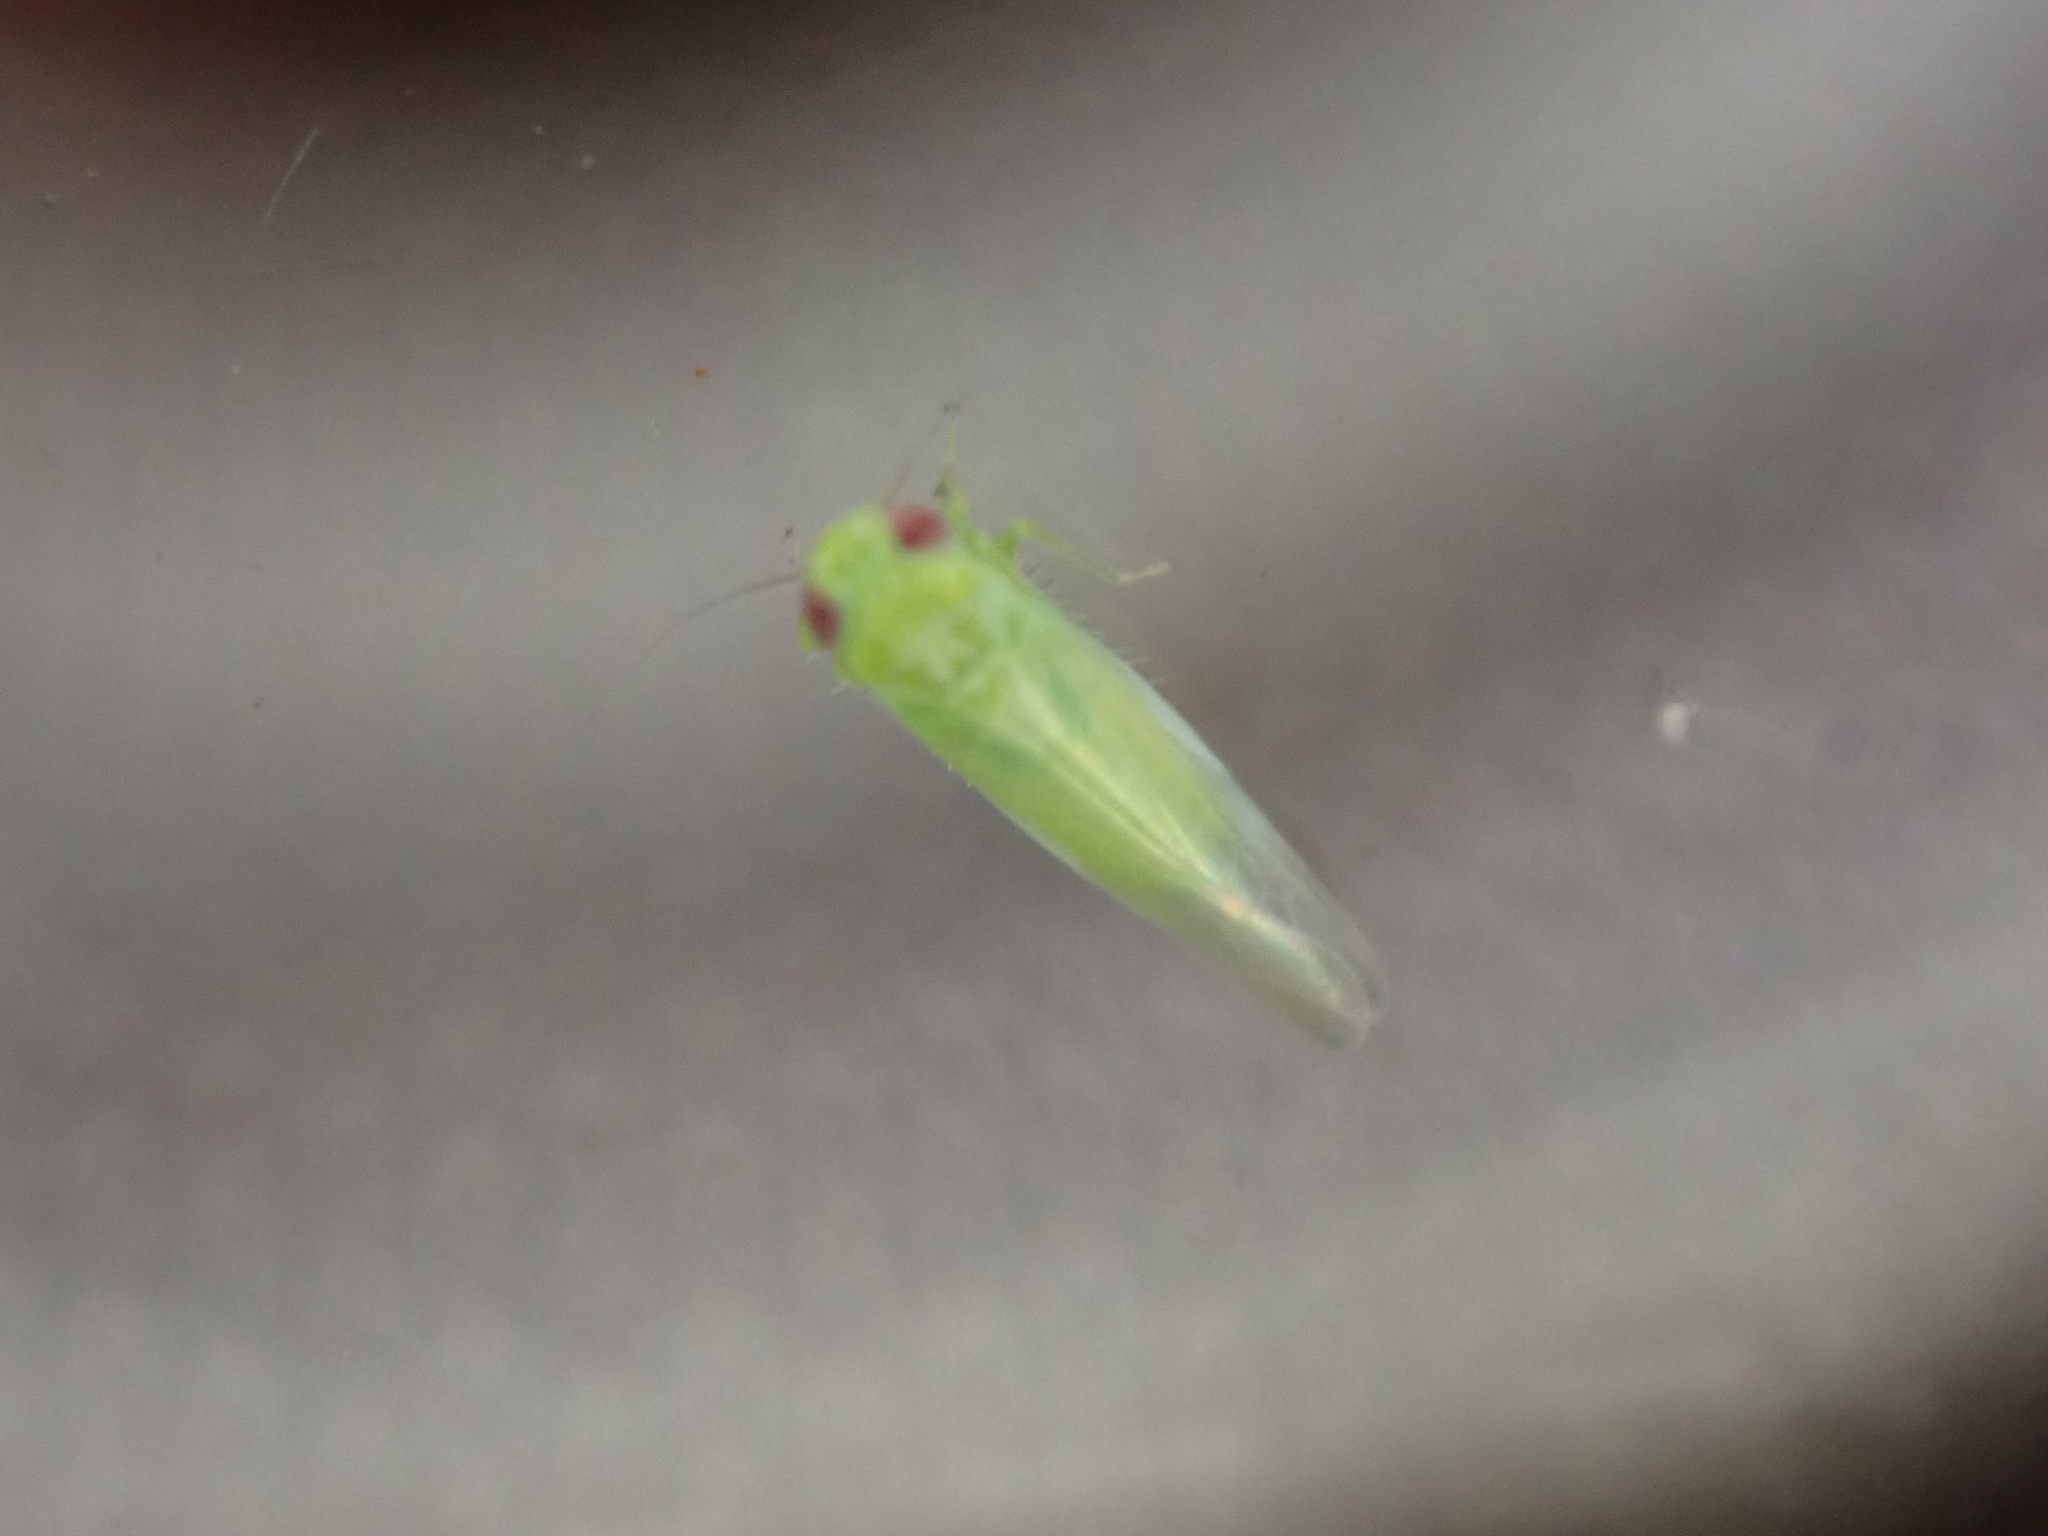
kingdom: Animalia
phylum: Arthropoda
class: Insecta
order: Hemiptera
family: Cicadellidae
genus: Empoasca
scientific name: Empoasca fabae
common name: Potato leafhopper
